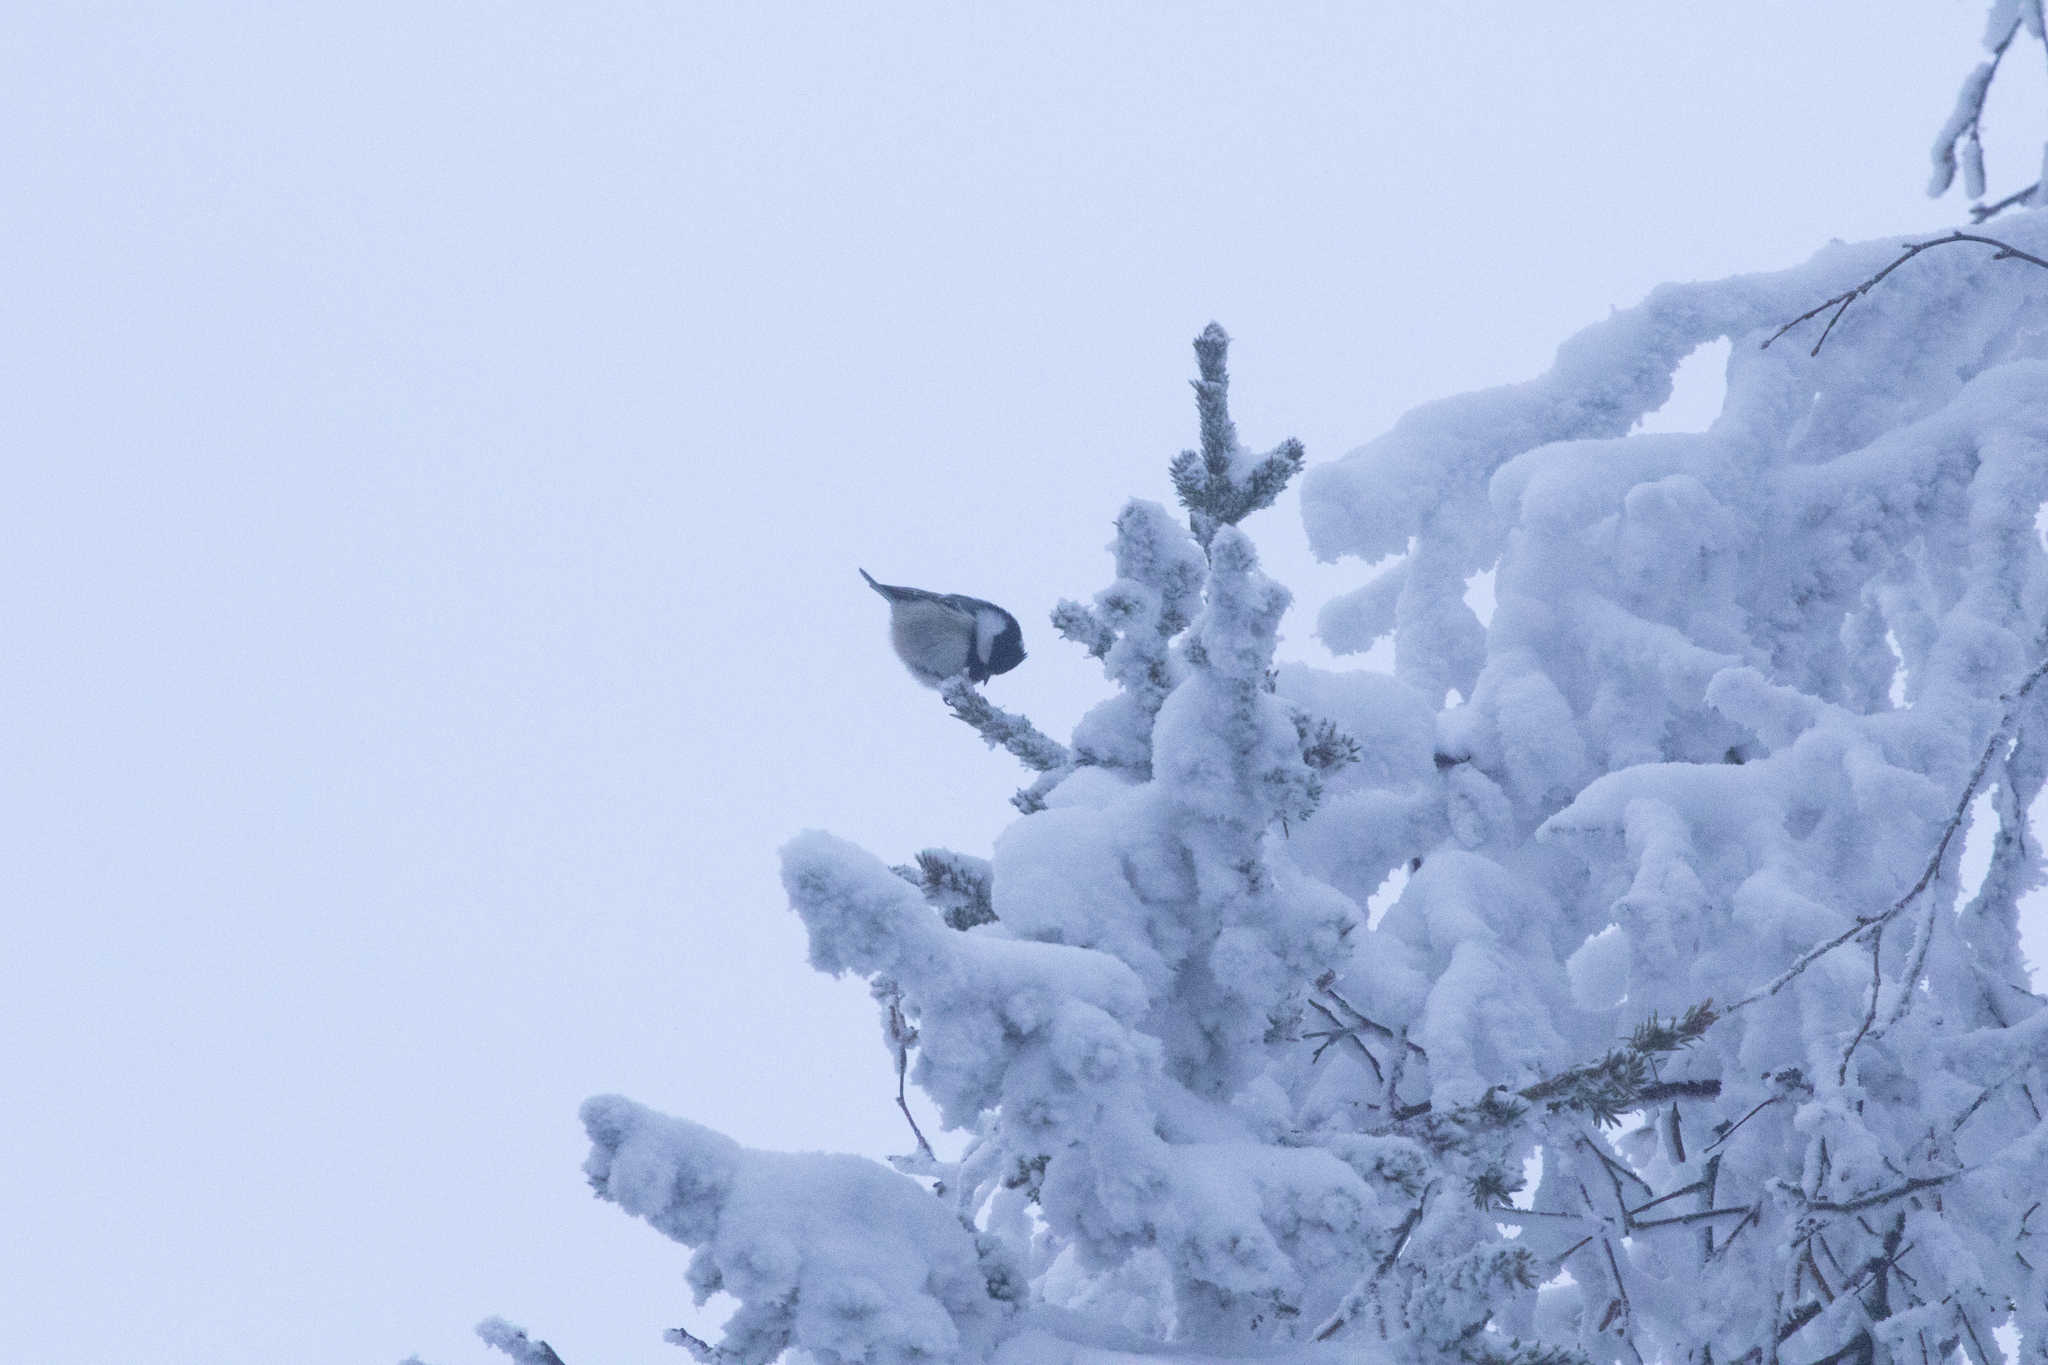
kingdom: Animalia
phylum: Chordata
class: Aves
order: Passeriformes
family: Paridae
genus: Periparus
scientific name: Periparus ater
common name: Coal tit
